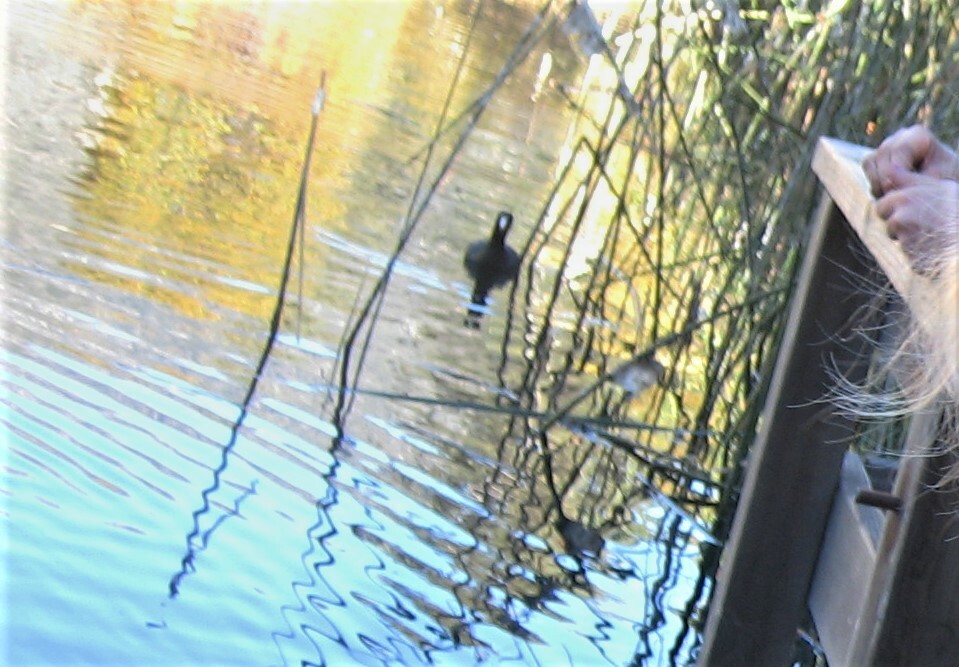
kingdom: Animalia
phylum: Chordata
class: Aves
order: Gruiformes
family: Rallidae
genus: Fulica
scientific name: Fulica americana
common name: American coot
